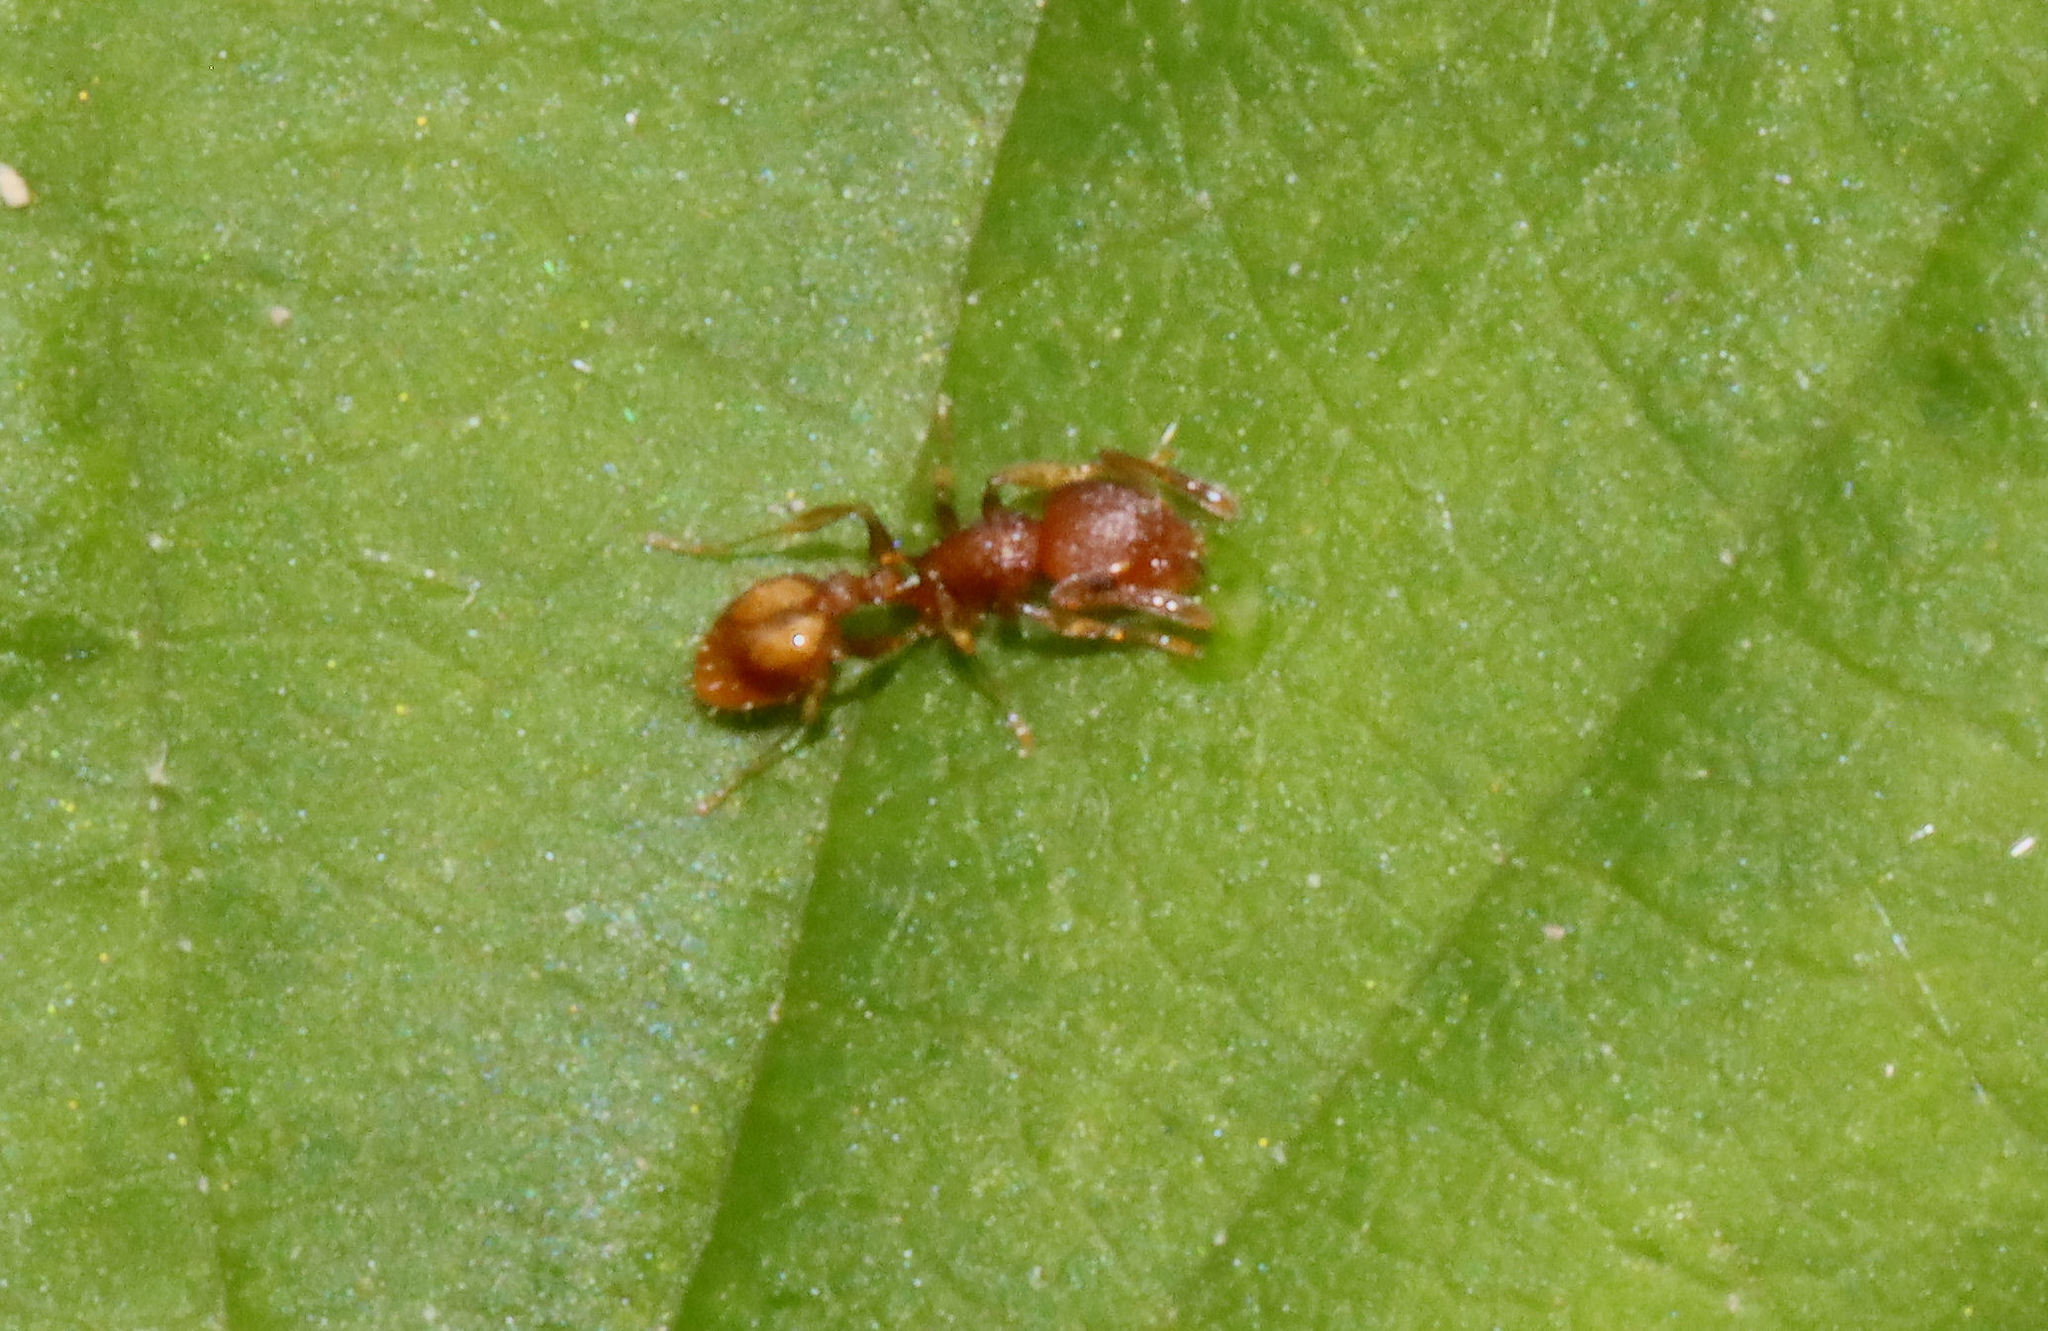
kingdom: Animalia
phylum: Arthropoda
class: Insecta
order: Hymenoptera
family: Formicidae
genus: Temnothorax
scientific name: Temnothorax curvispinosus
